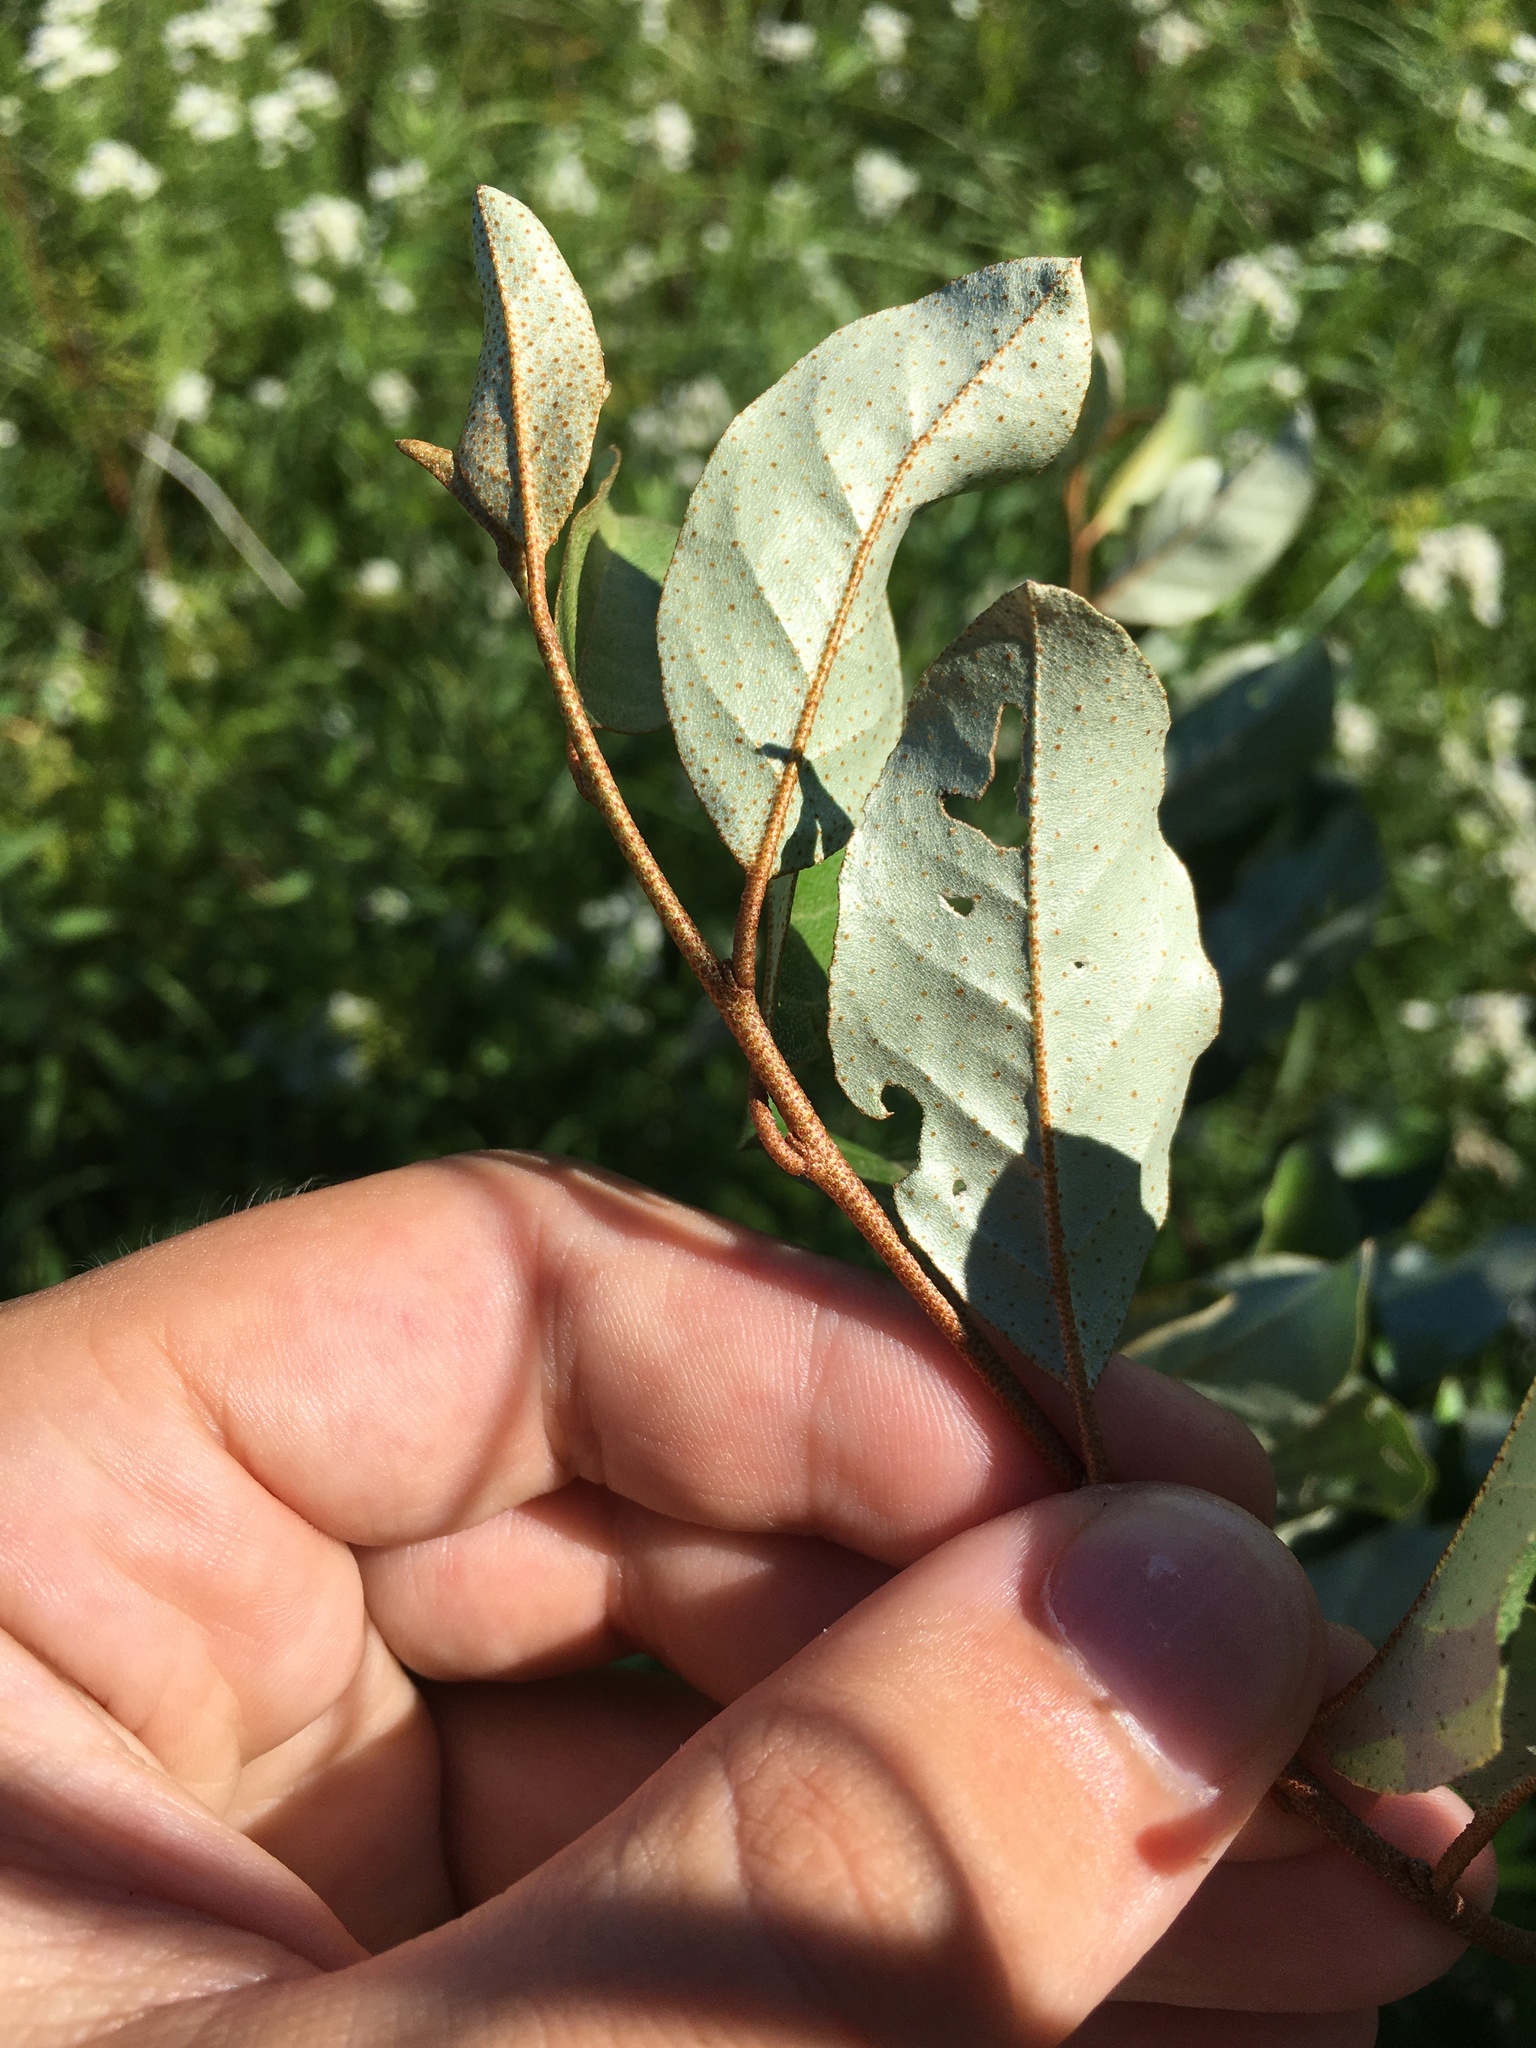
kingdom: Plantae
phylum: Tracheophyta
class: Magnoliopsida
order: Rosales
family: Elaeagnaceae
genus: Elaeagnus
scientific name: Elaeagnus umbellata
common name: Autumn olive
